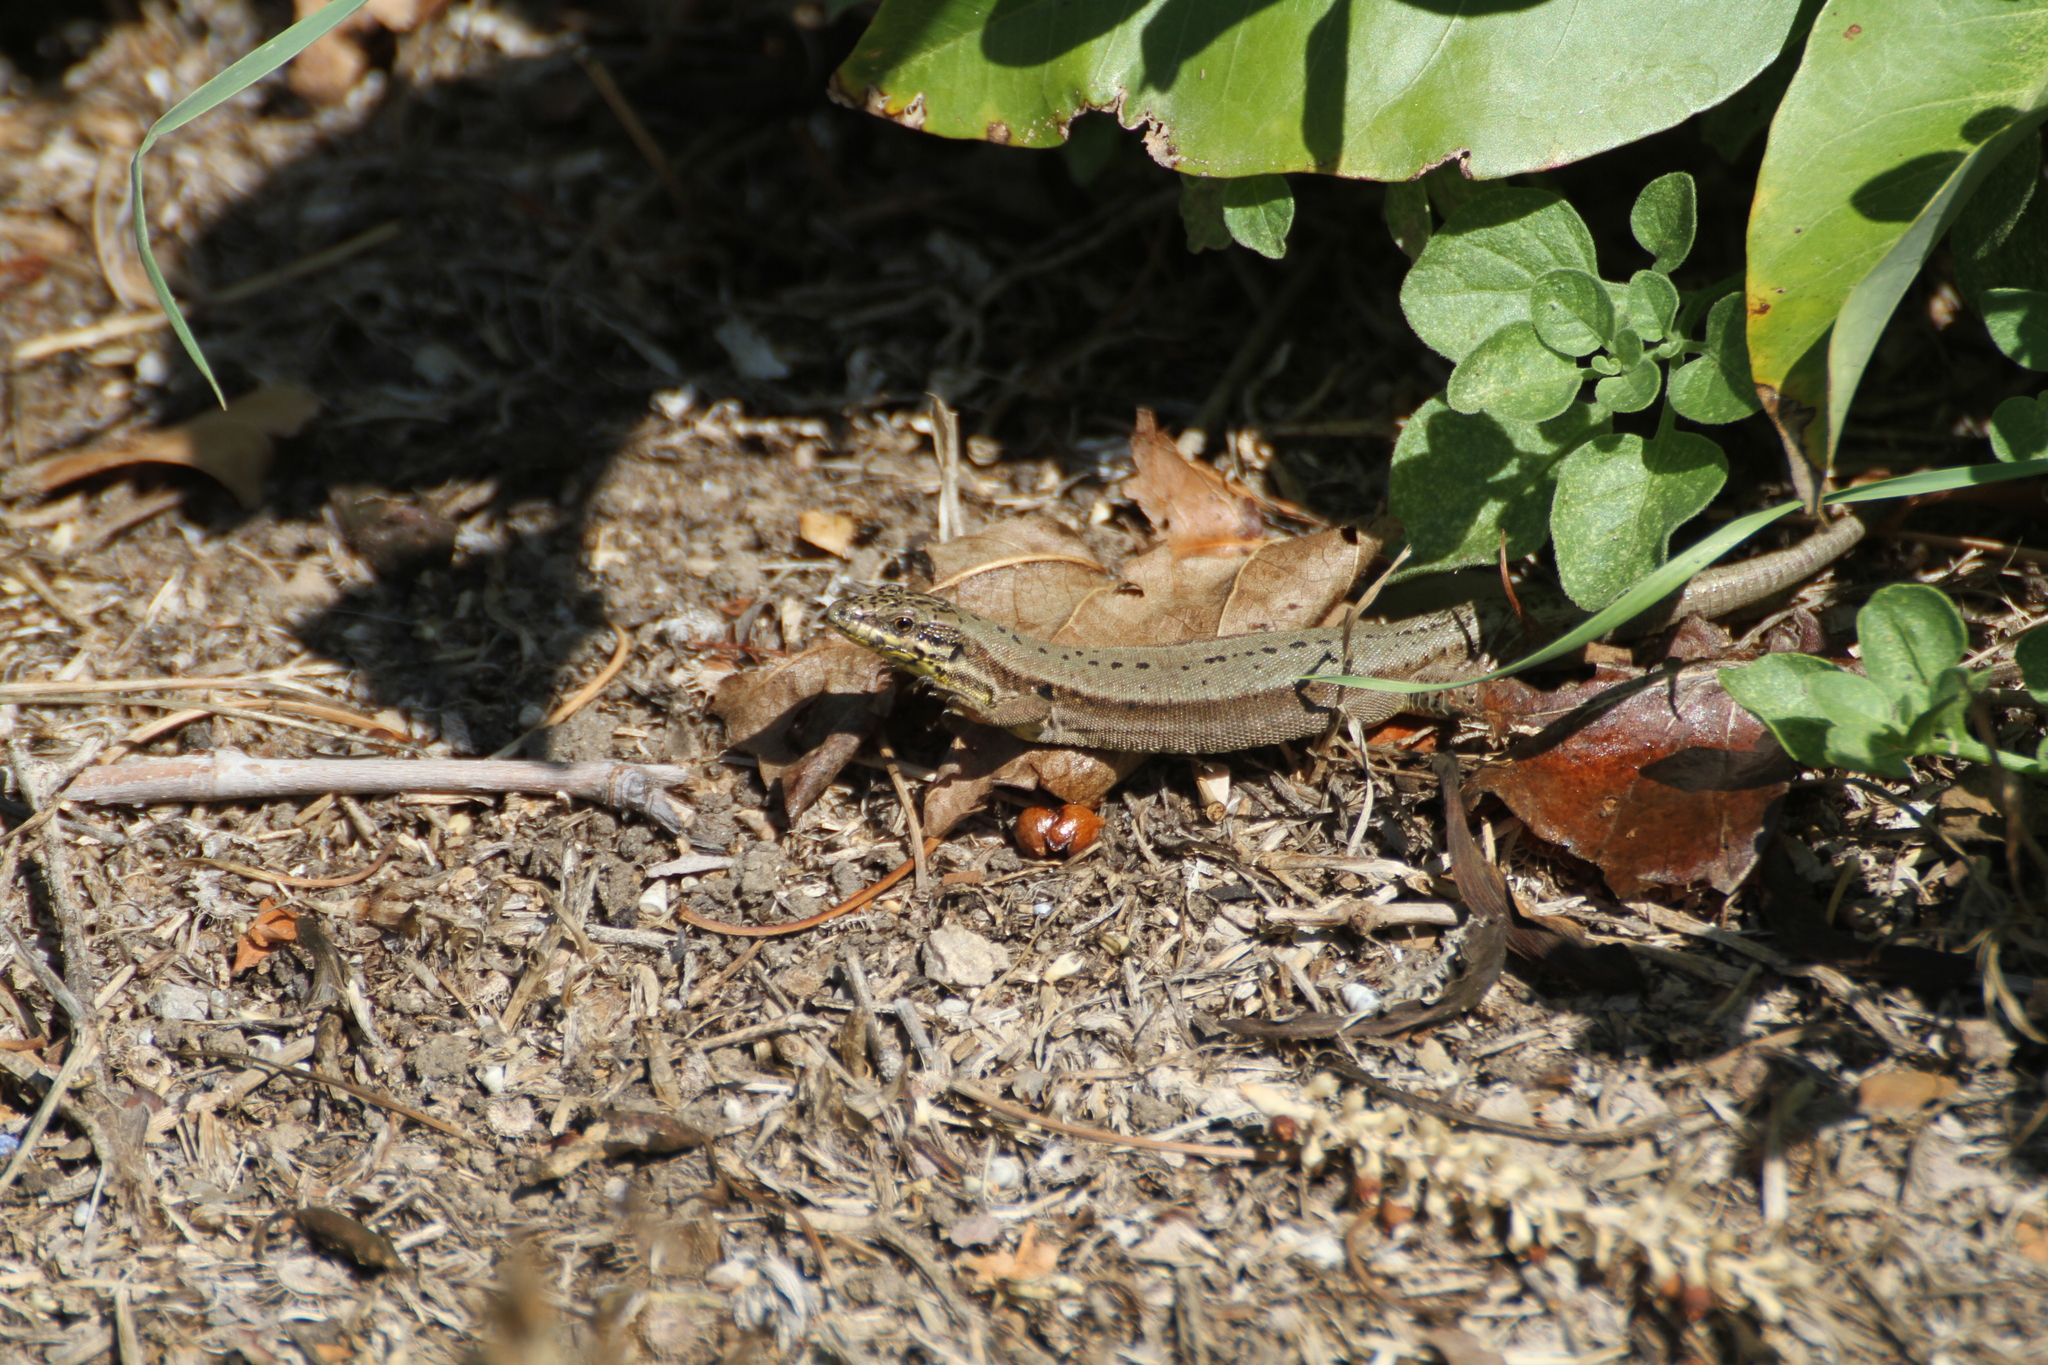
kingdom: Animalia
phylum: Chordata
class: Squamata
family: Lacertidae
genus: Podarcis
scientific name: Podarcis muralis
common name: Common wall lizard
